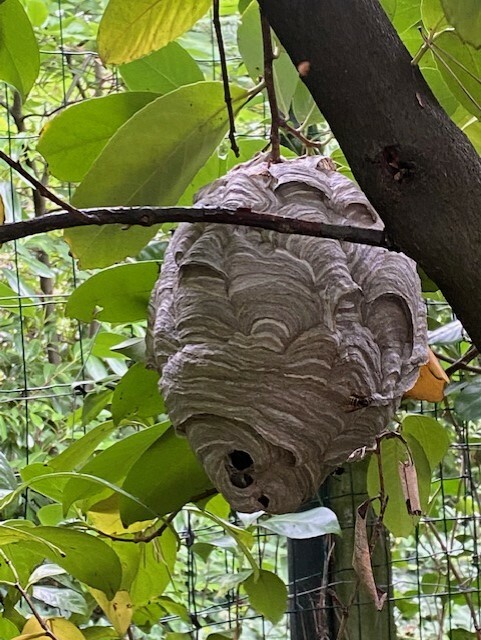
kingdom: Animalia
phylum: Arthropoda
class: Insecta
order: Hymenoptera
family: Vespidae
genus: Dolichovespula
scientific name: Dolichovespula media
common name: Median wasp
